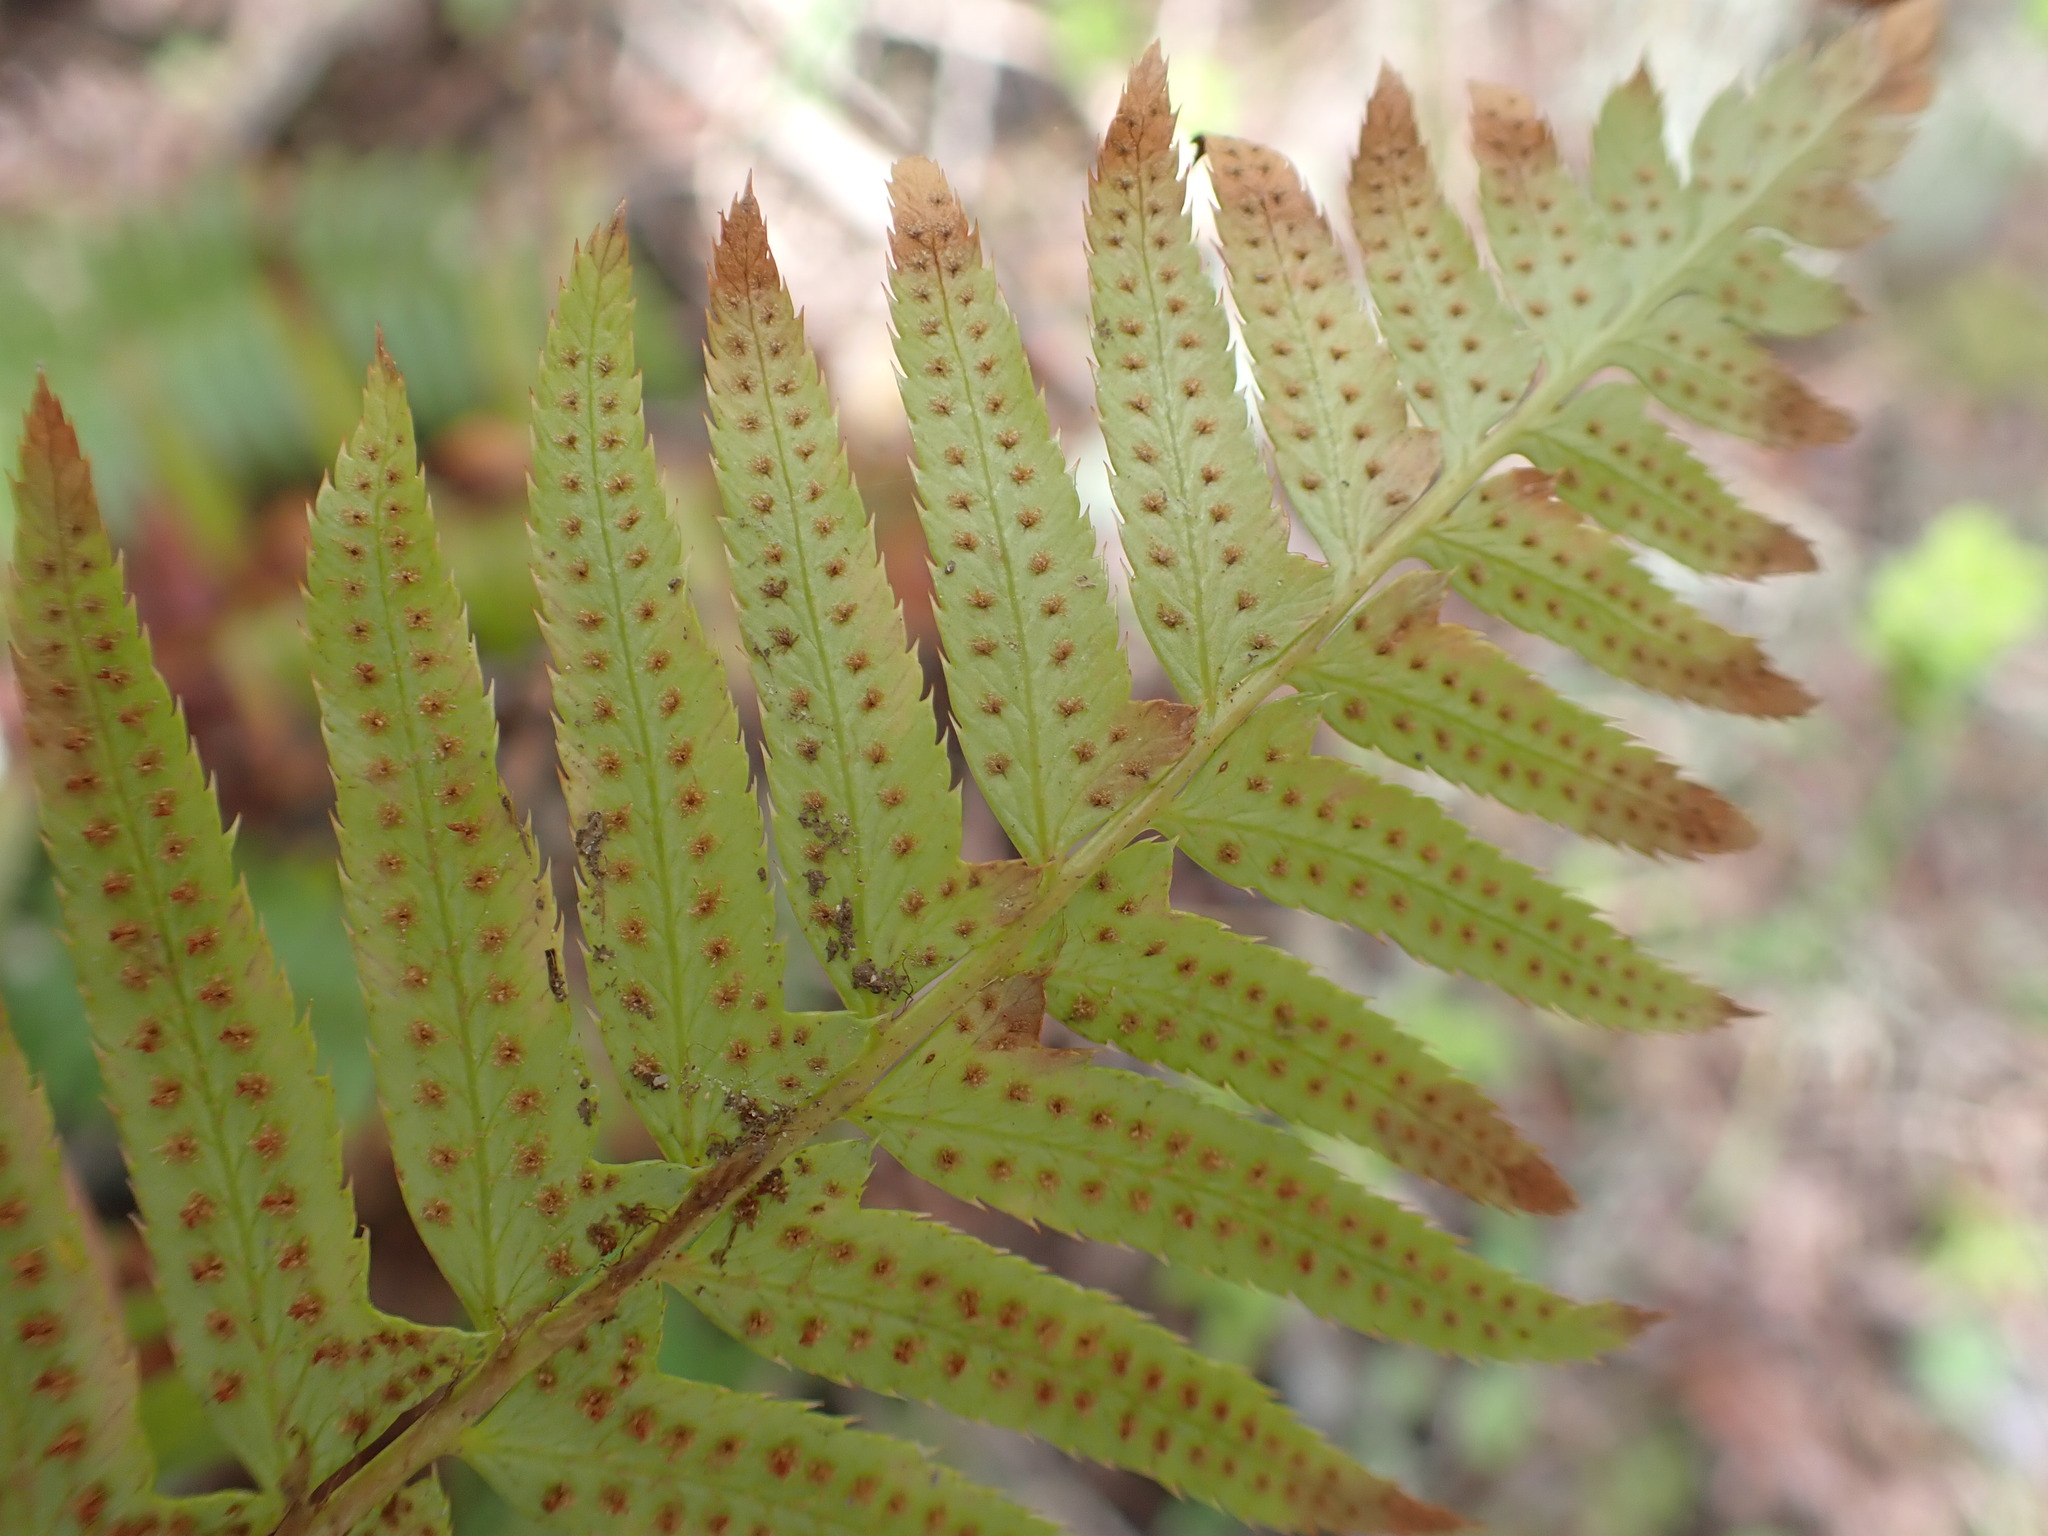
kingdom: Plantae
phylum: Tracheophyta
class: Polypodiopsida
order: Polypodiales
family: Dryopteridaceae
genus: Polystichum
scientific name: Polystichum munitum
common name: Western sword-fern
